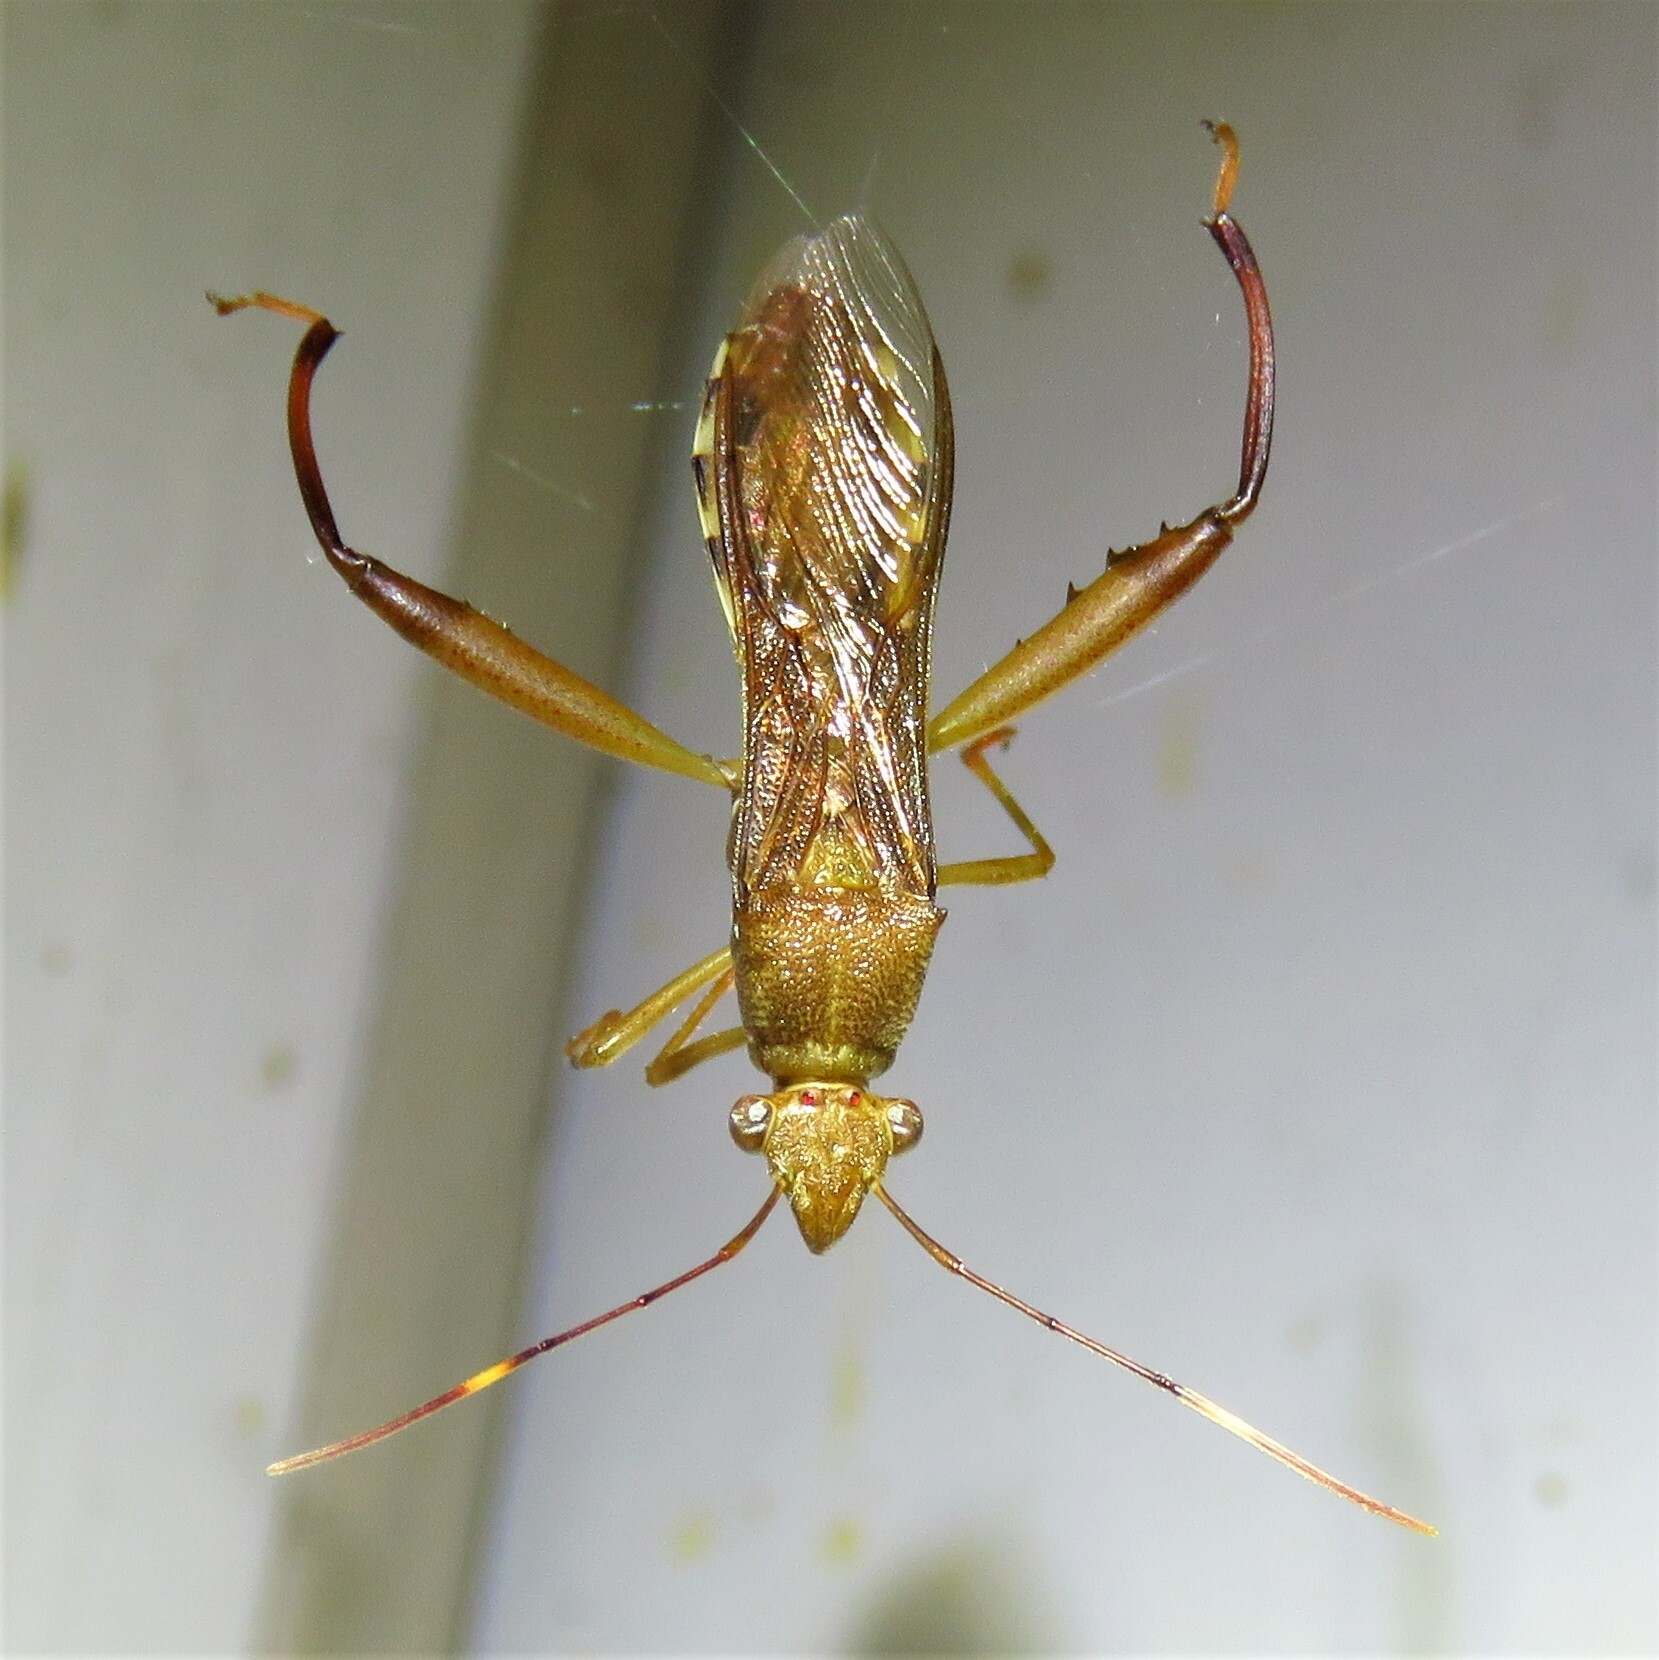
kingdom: Animalia
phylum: Arthropoda
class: Insecta
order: Hemiptera
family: Alydidae
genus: Hyalymenus
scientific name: Hyalymenus tarsatus
